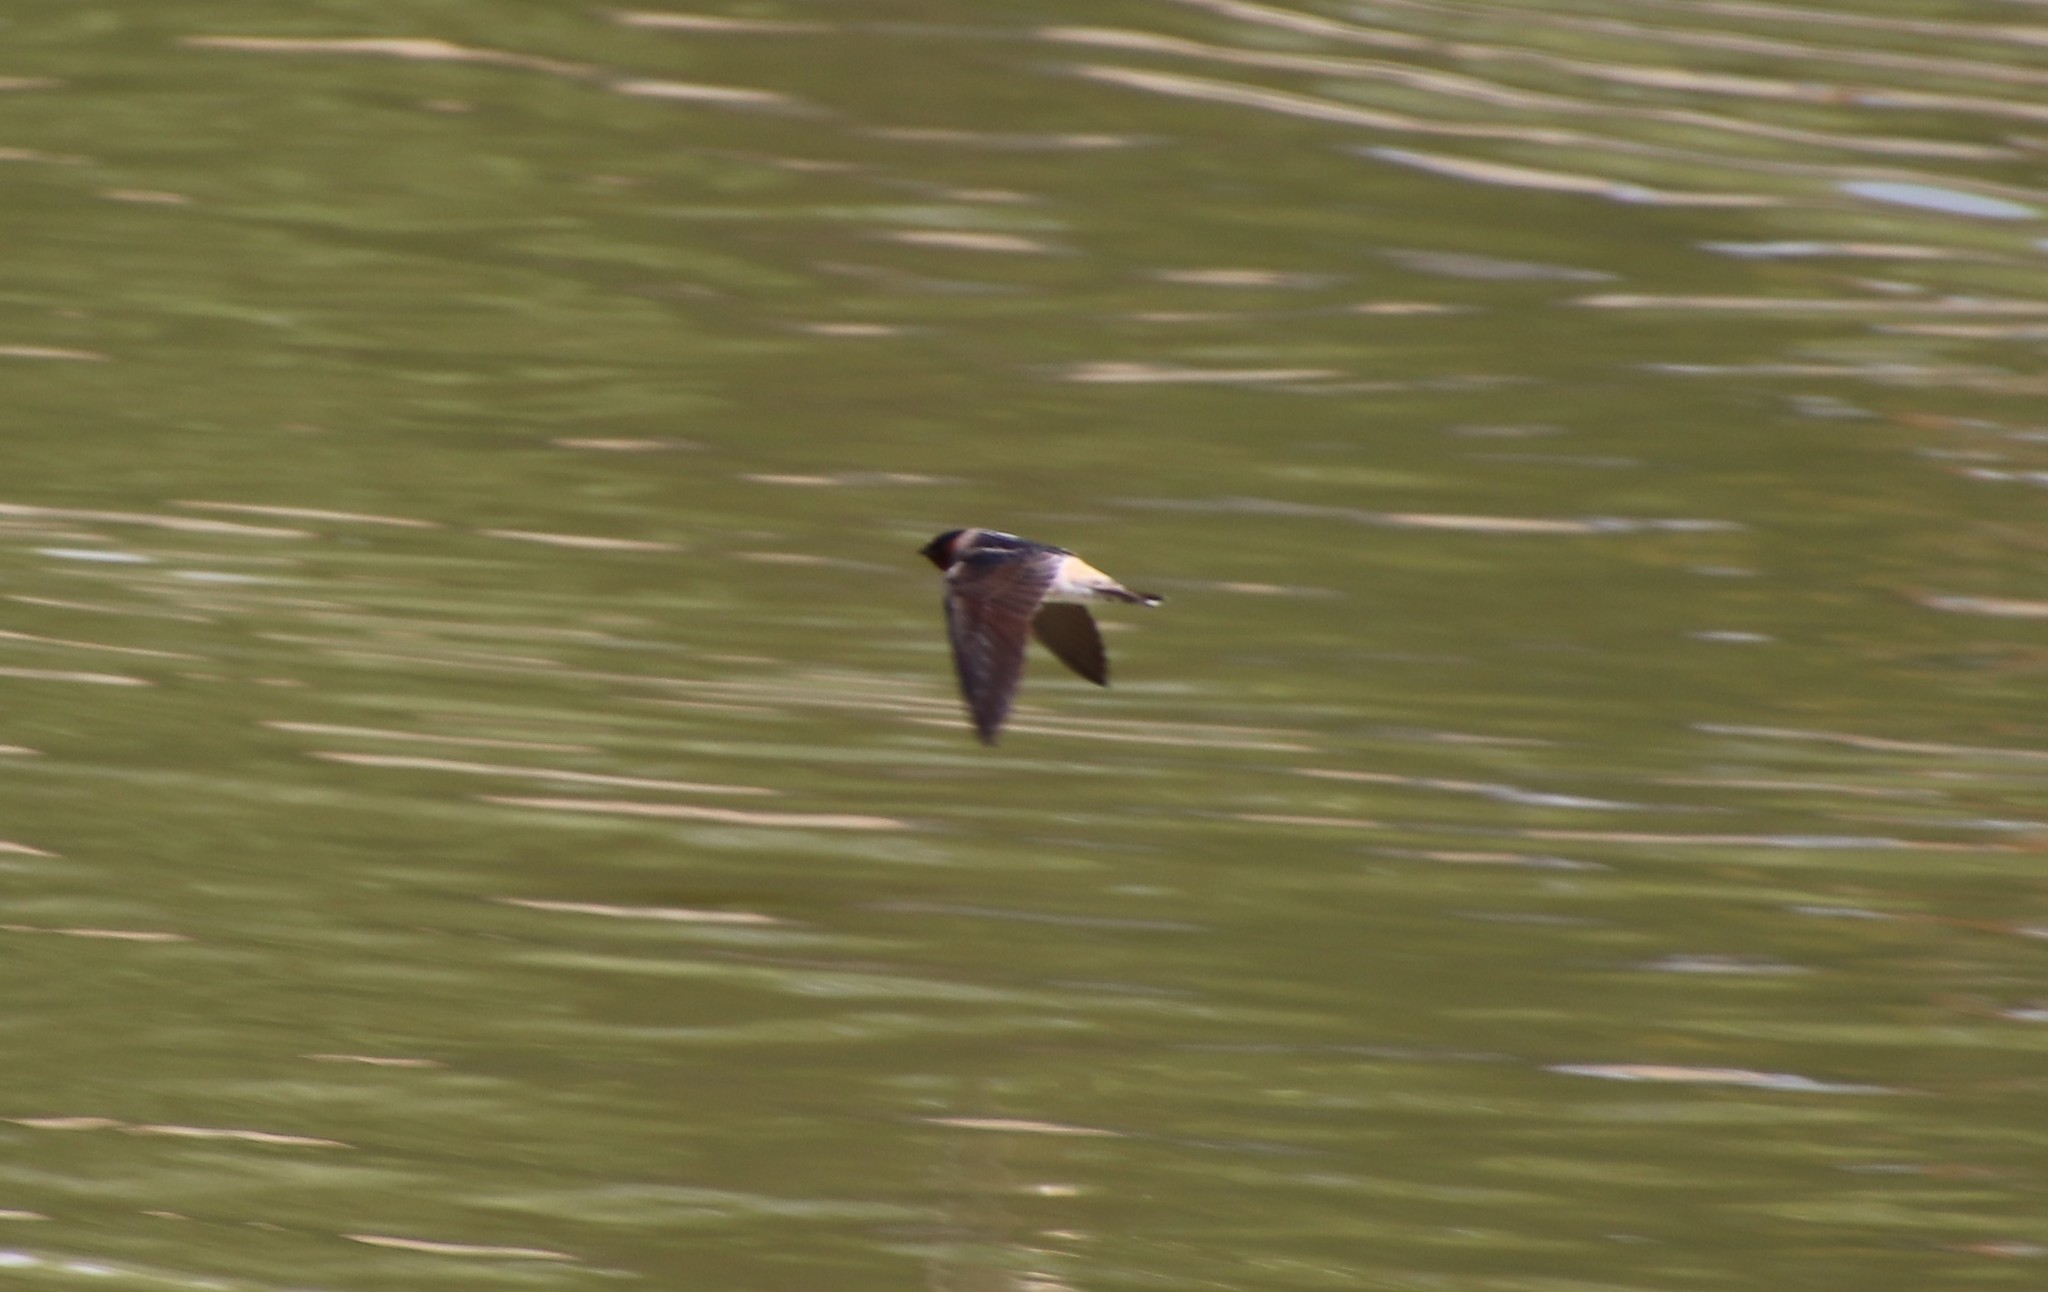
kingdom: Animalia
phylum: Chordata
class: Aves
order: Passeriformes
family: Hirundinidae
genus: Petrochelidon
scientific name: Petrochelidon pyrrhonota
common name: American cliff swallow
